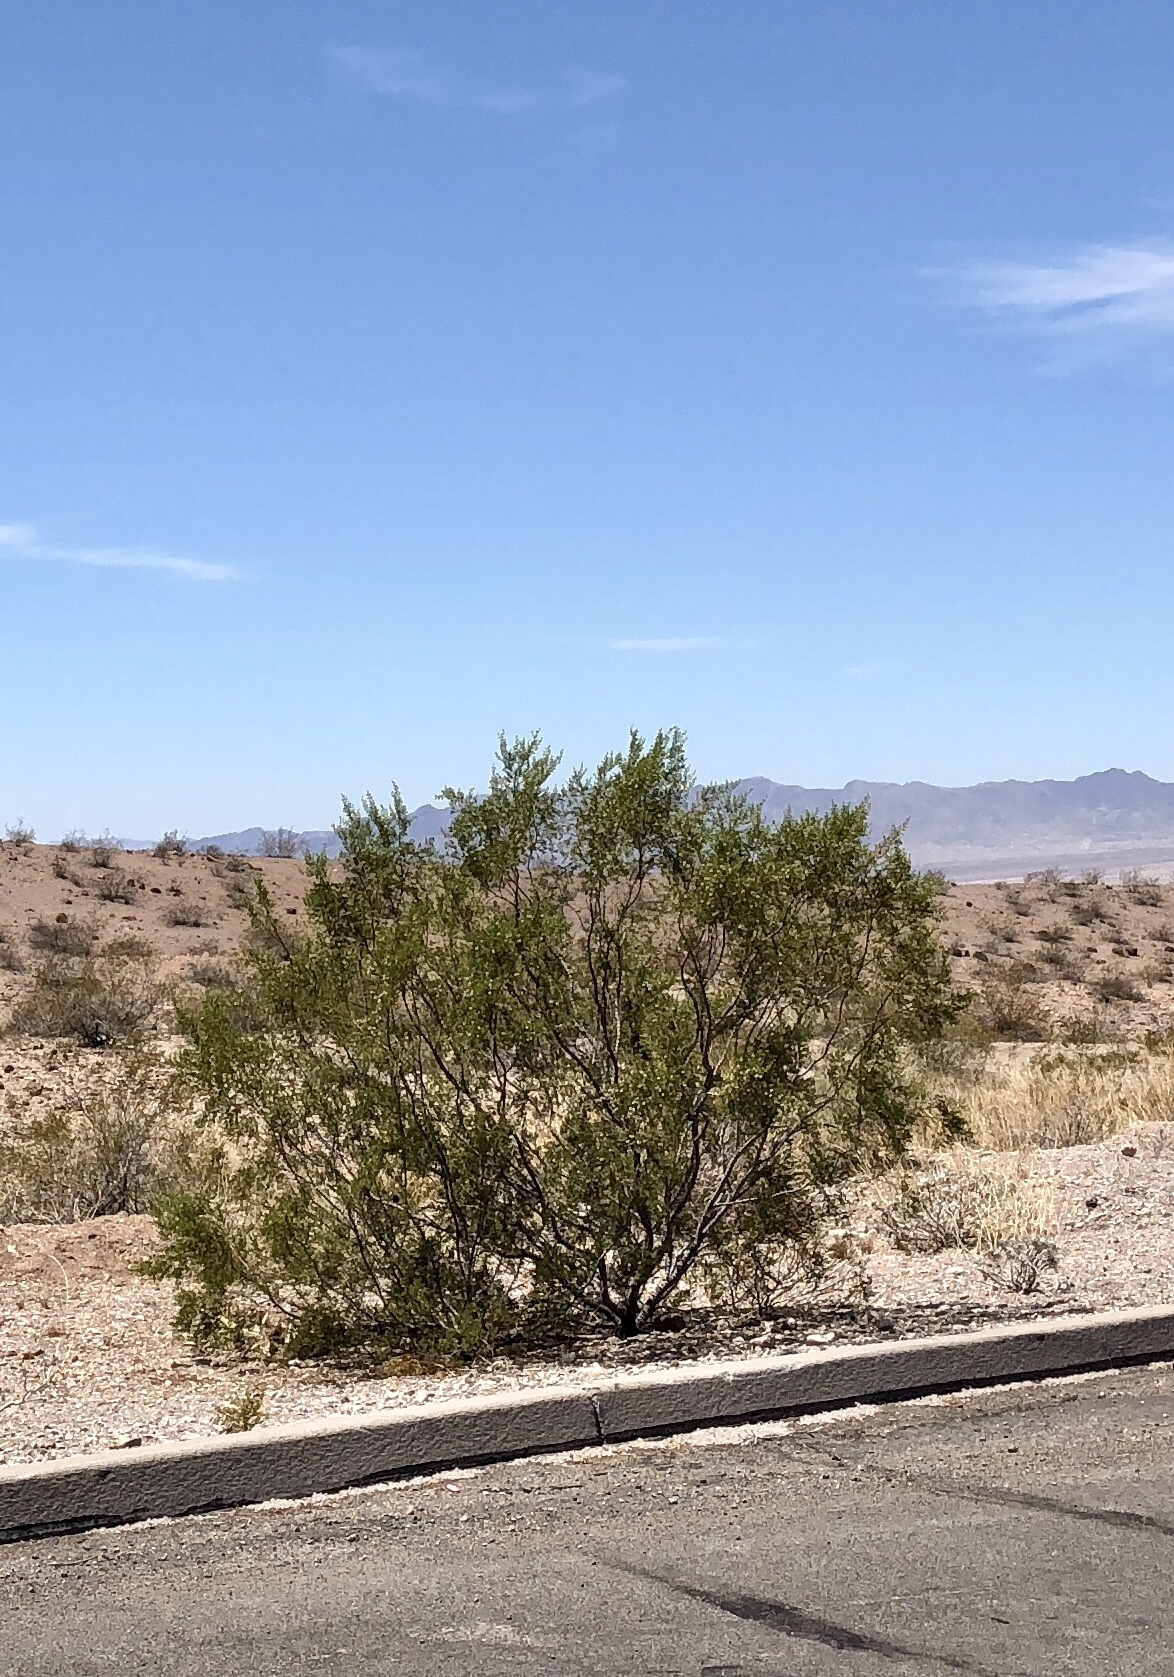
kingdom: Plantae
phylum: Tracheophyta
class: Magnoliopsida
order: Zygophyllales
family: Zygophyllaceae
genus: Larrea
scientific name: Larrea tridentata
